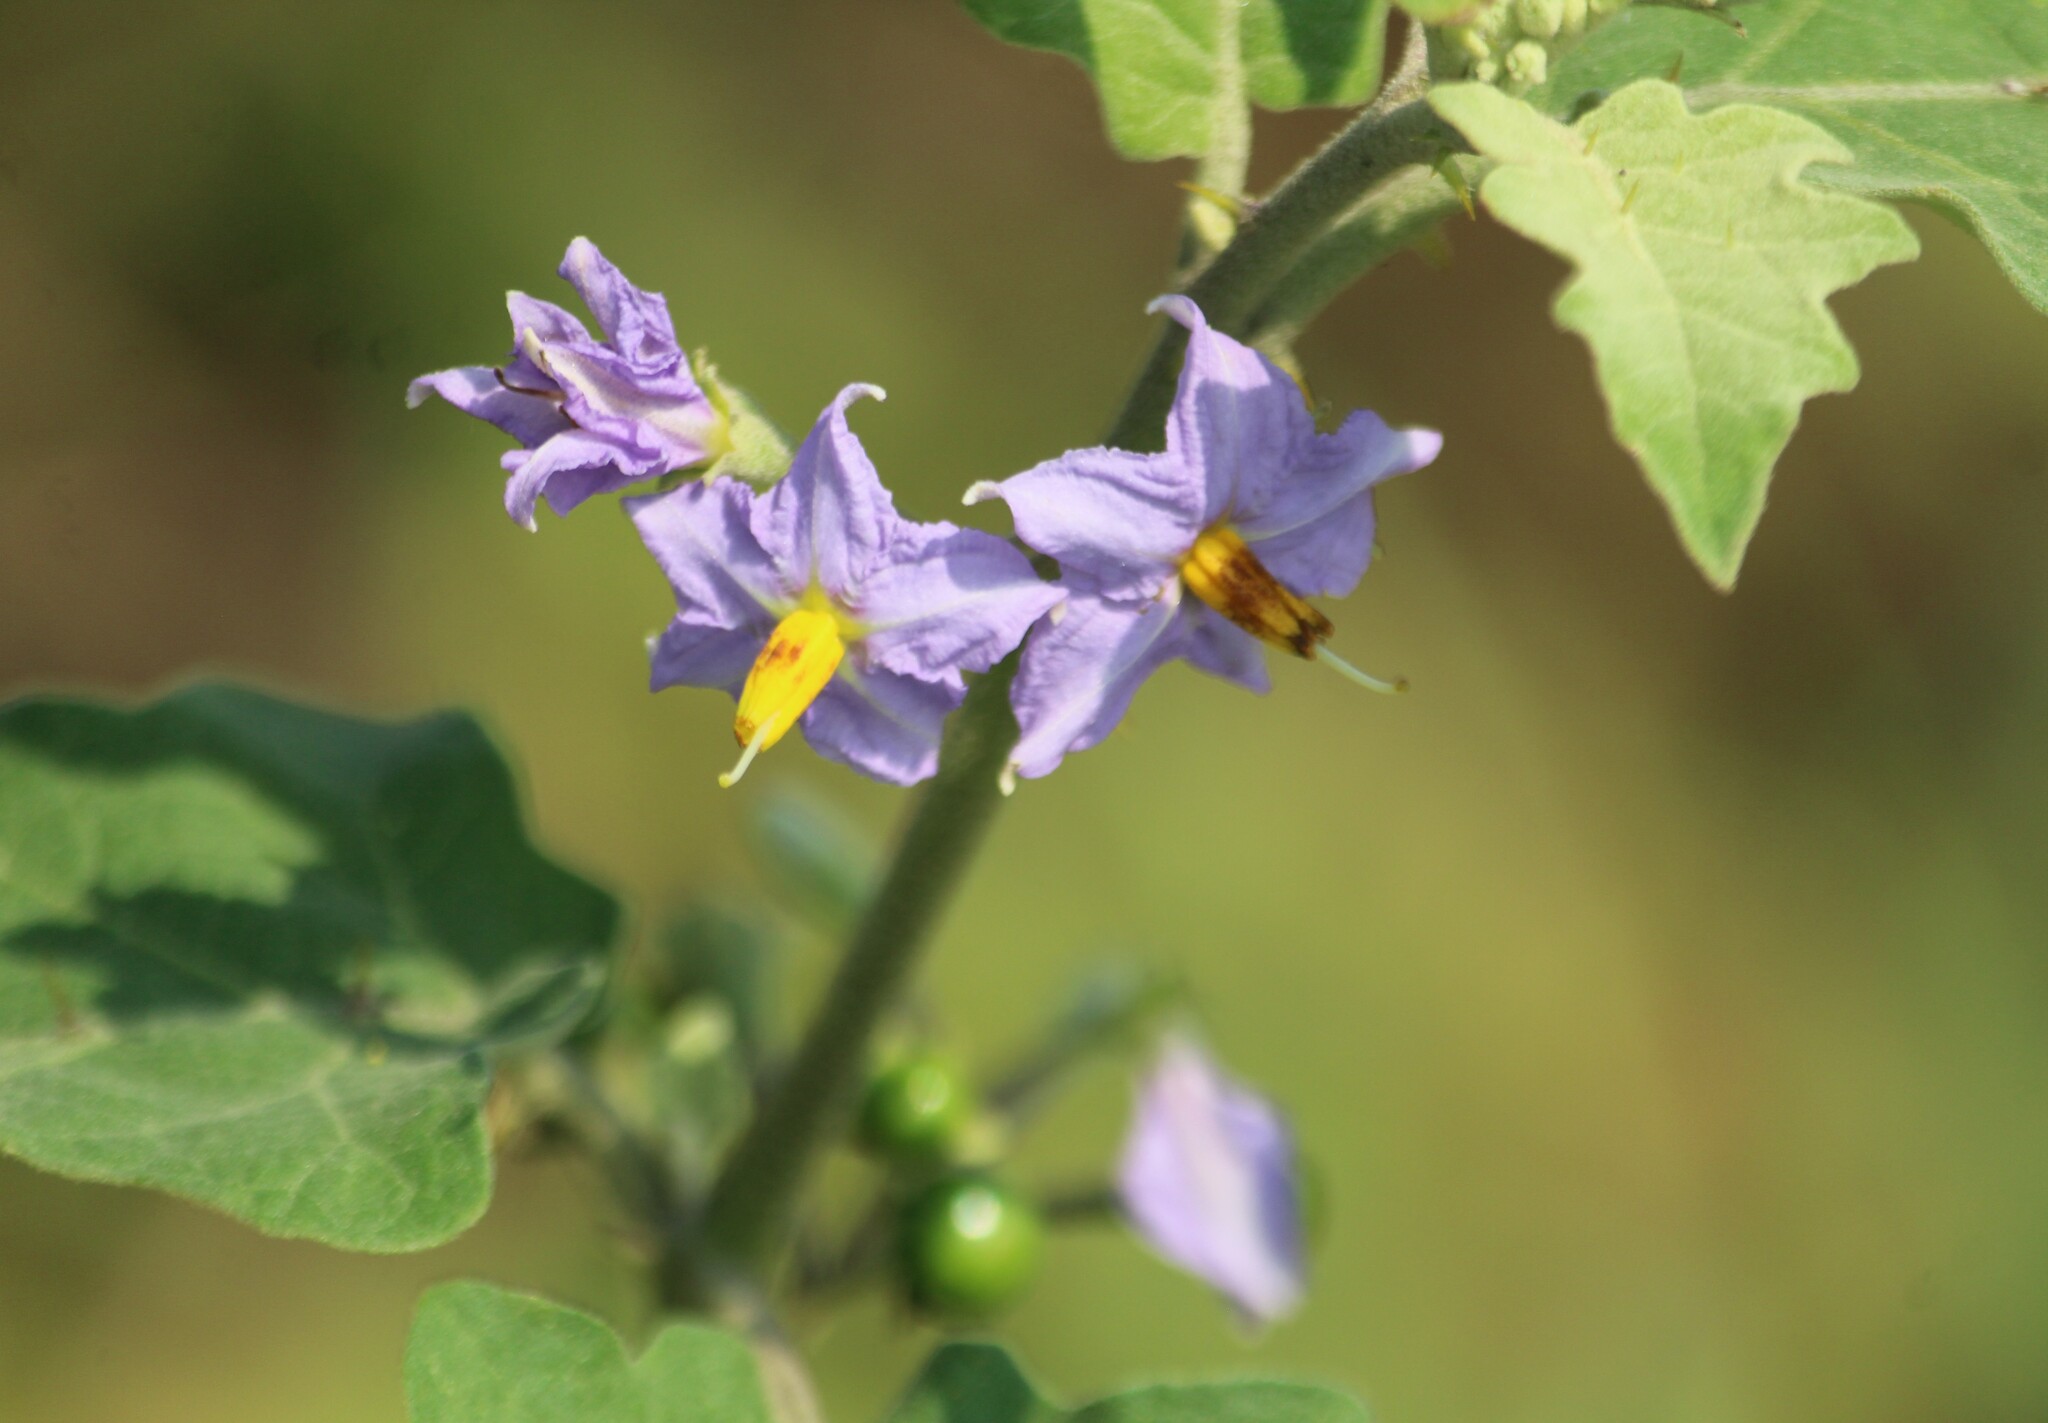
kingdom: Plantae
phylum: Tracheophyta
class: Magnoliopsida
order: Solanales
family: Solanaceae
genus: Solanum
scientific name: Solanum violaceum
